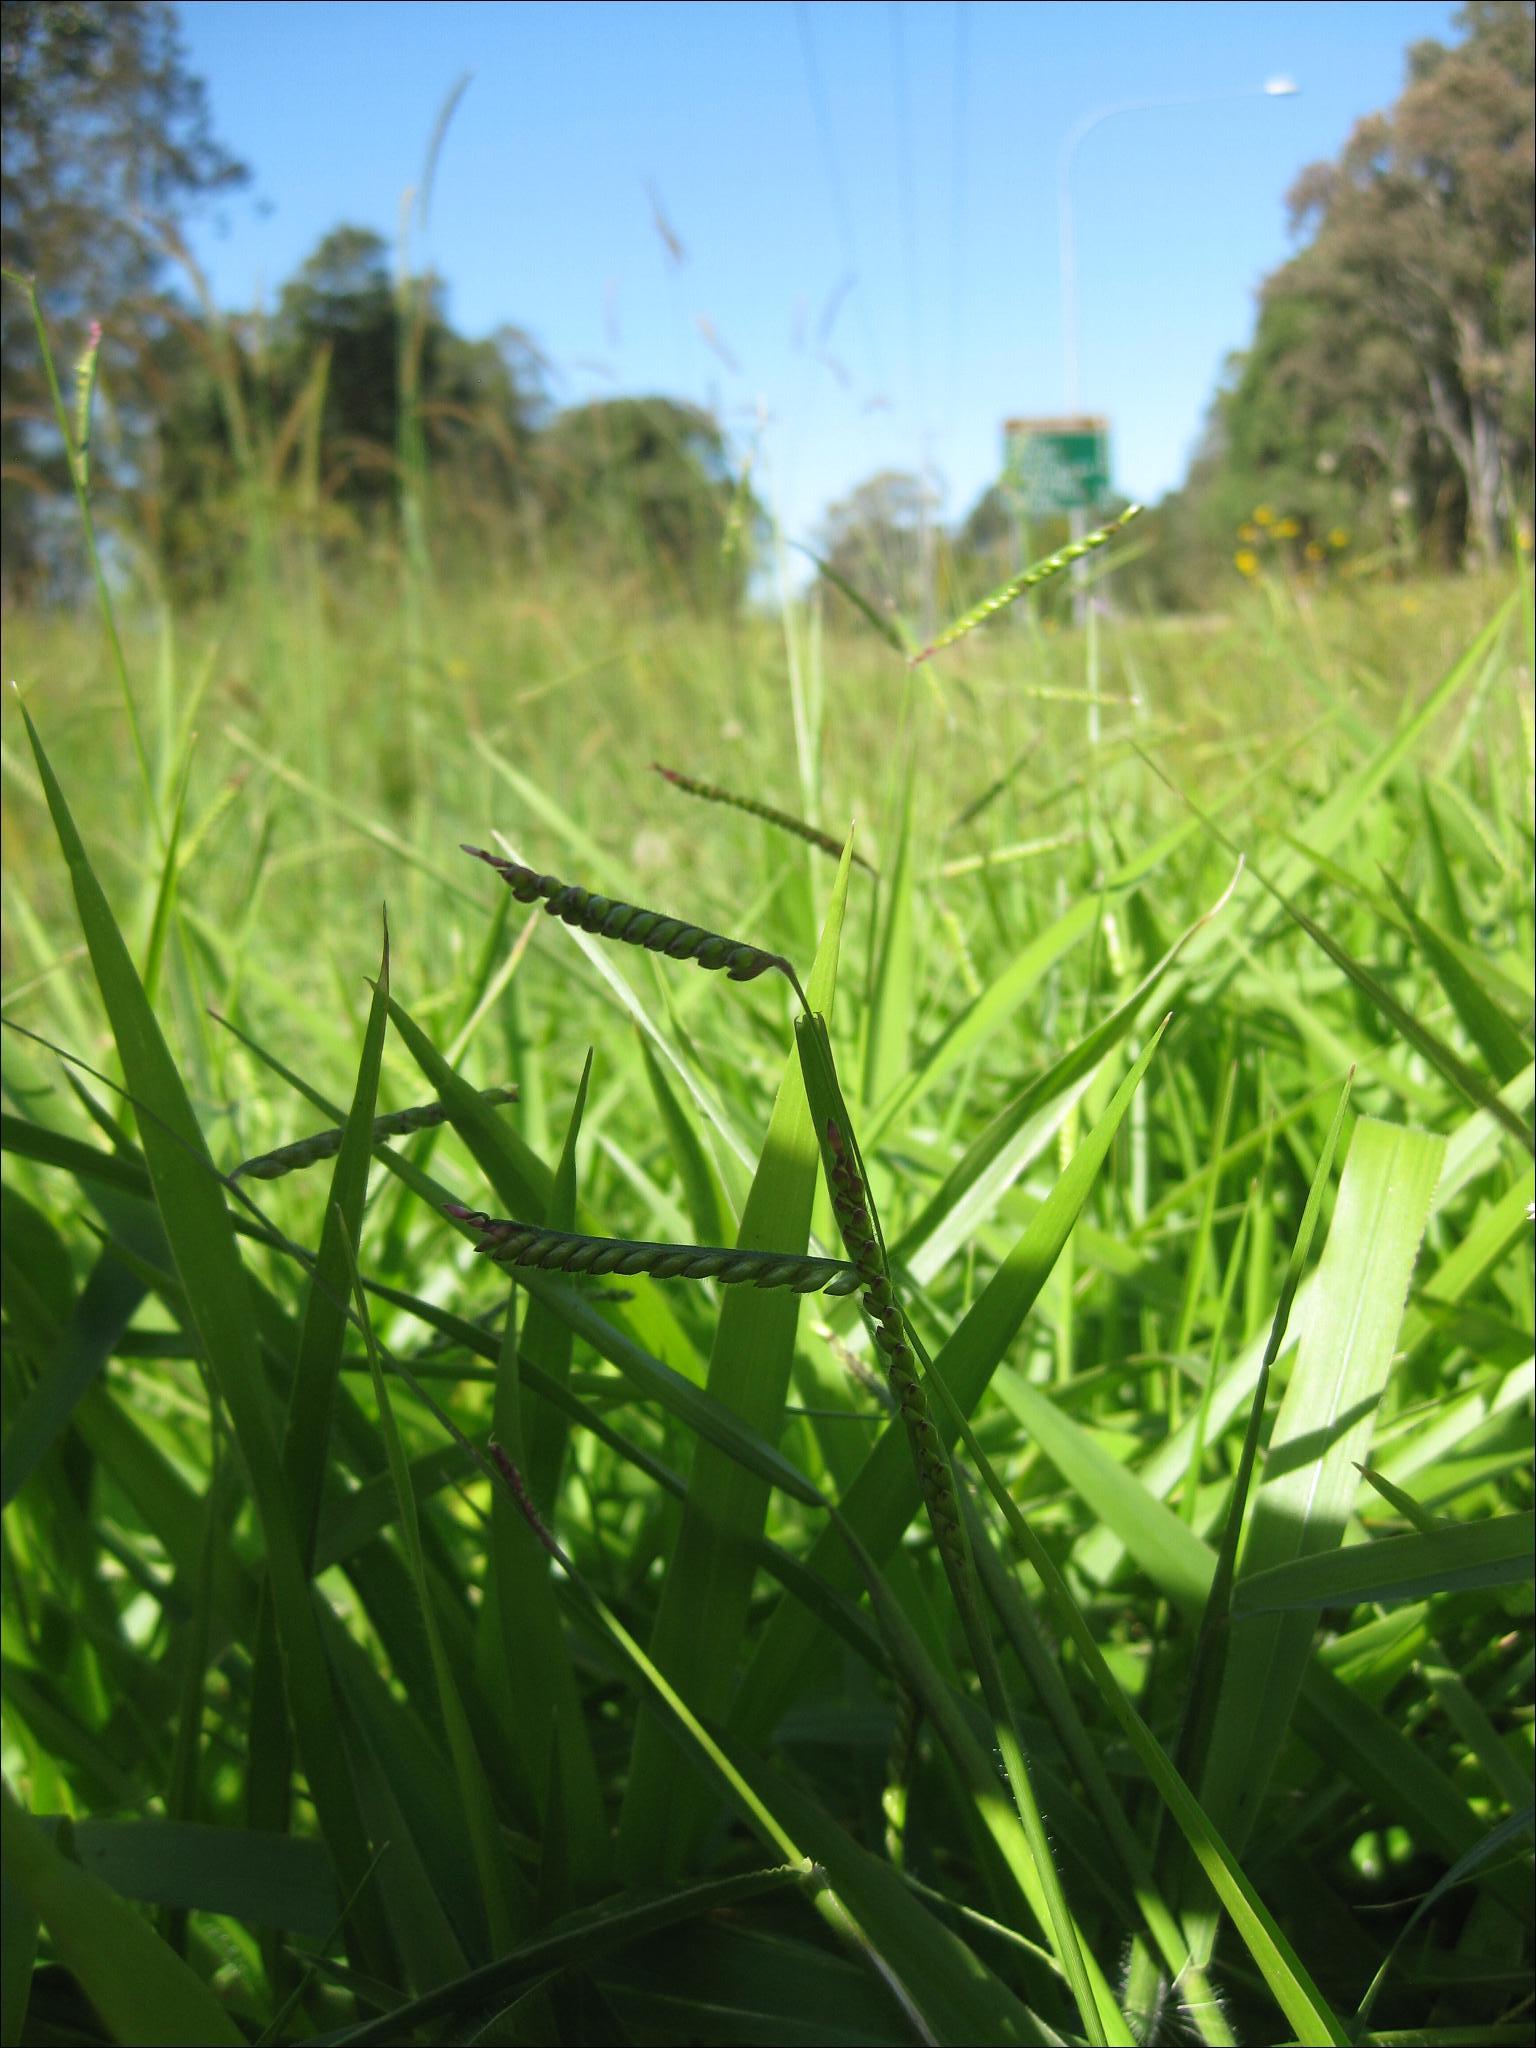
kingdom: Plantae
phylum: Tracheophyta
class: Liliopsida
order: Poales
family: Poaceae
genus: Urochloa
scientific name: Urochloa eminii
